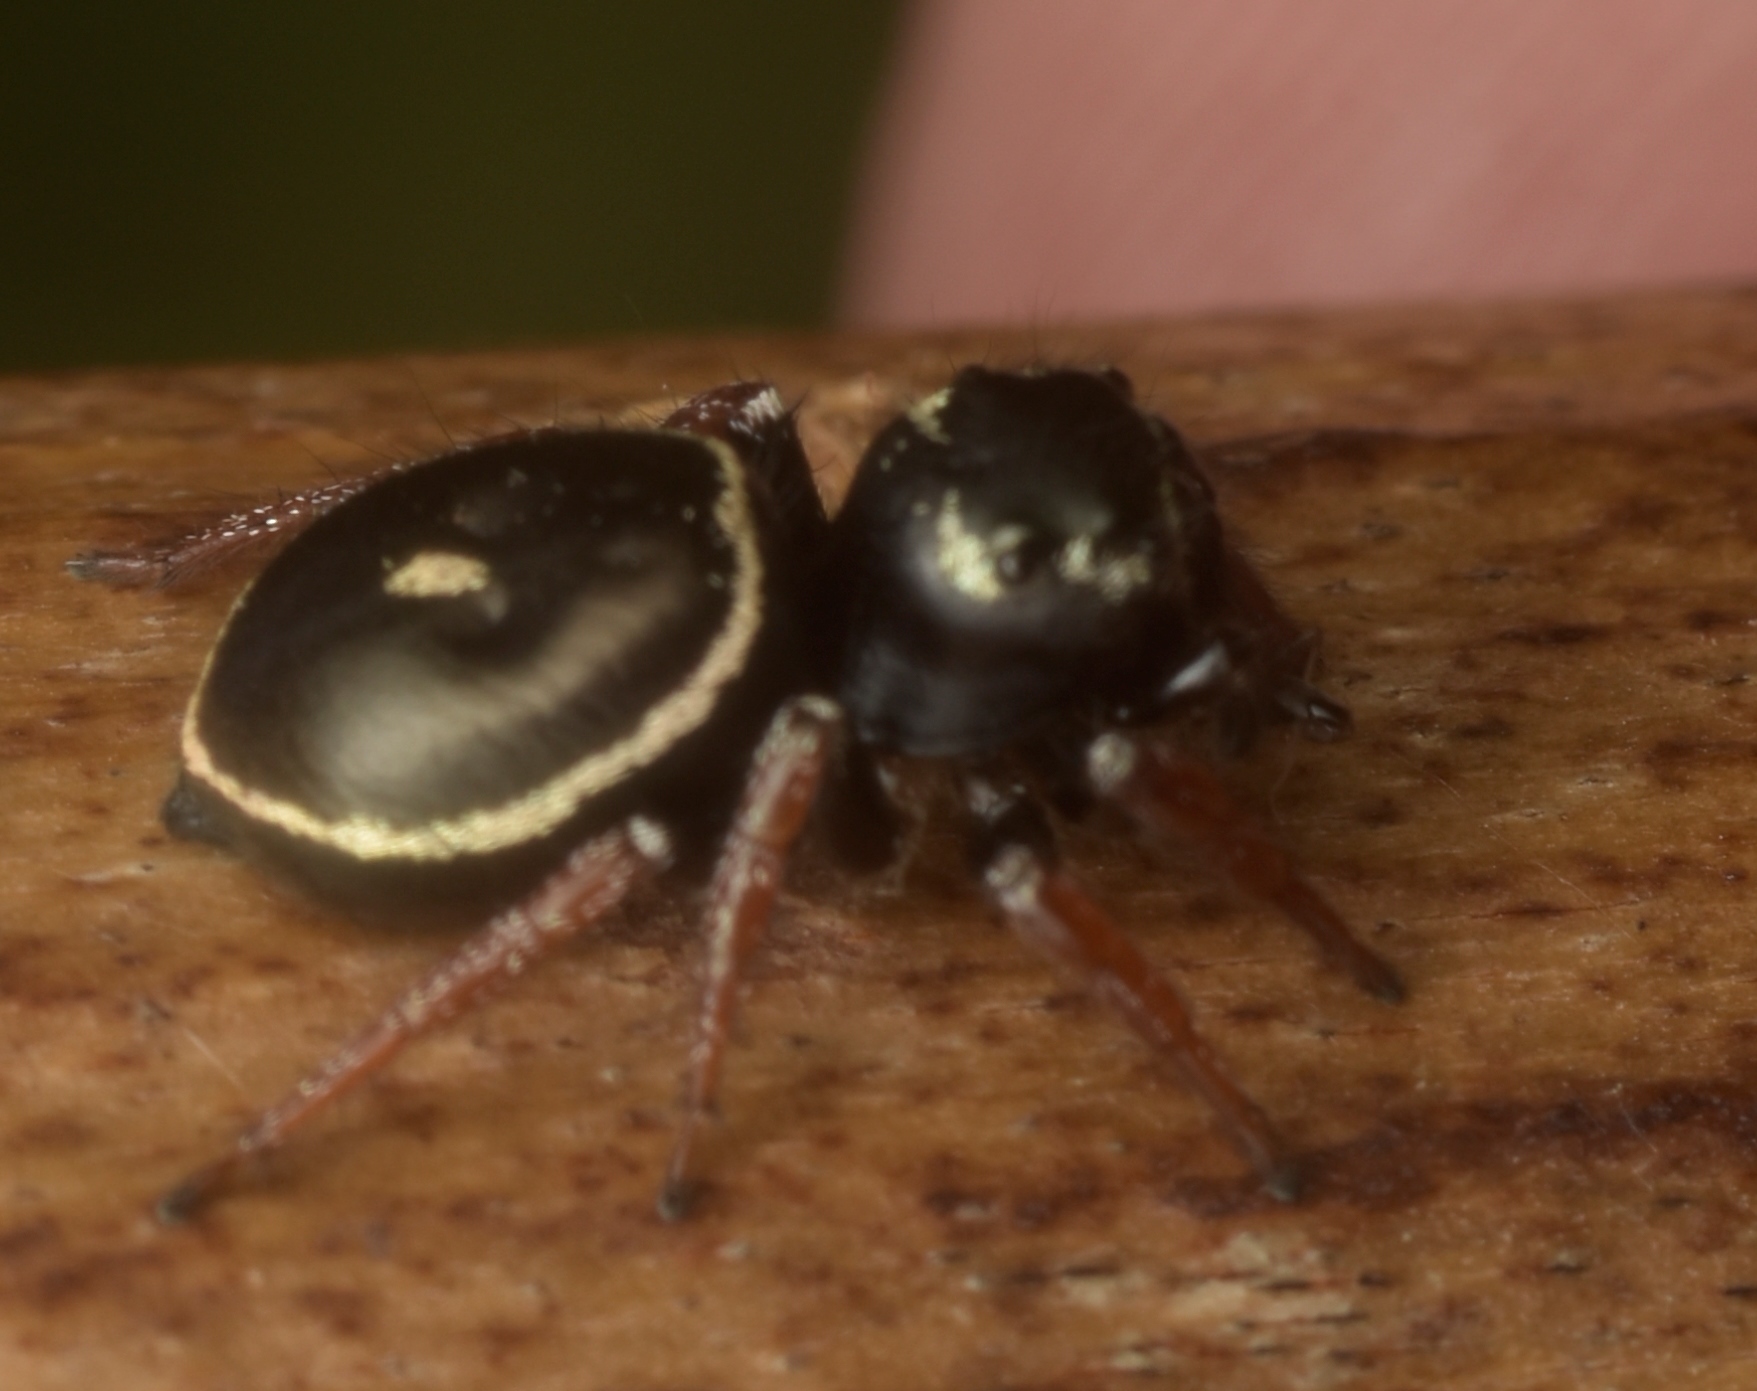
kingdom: Animalia
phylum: Arthropoda
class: Arachnida
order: Araneae
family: Salticidae
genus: Zenodorus
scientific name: Zenodorus orbiculatus
